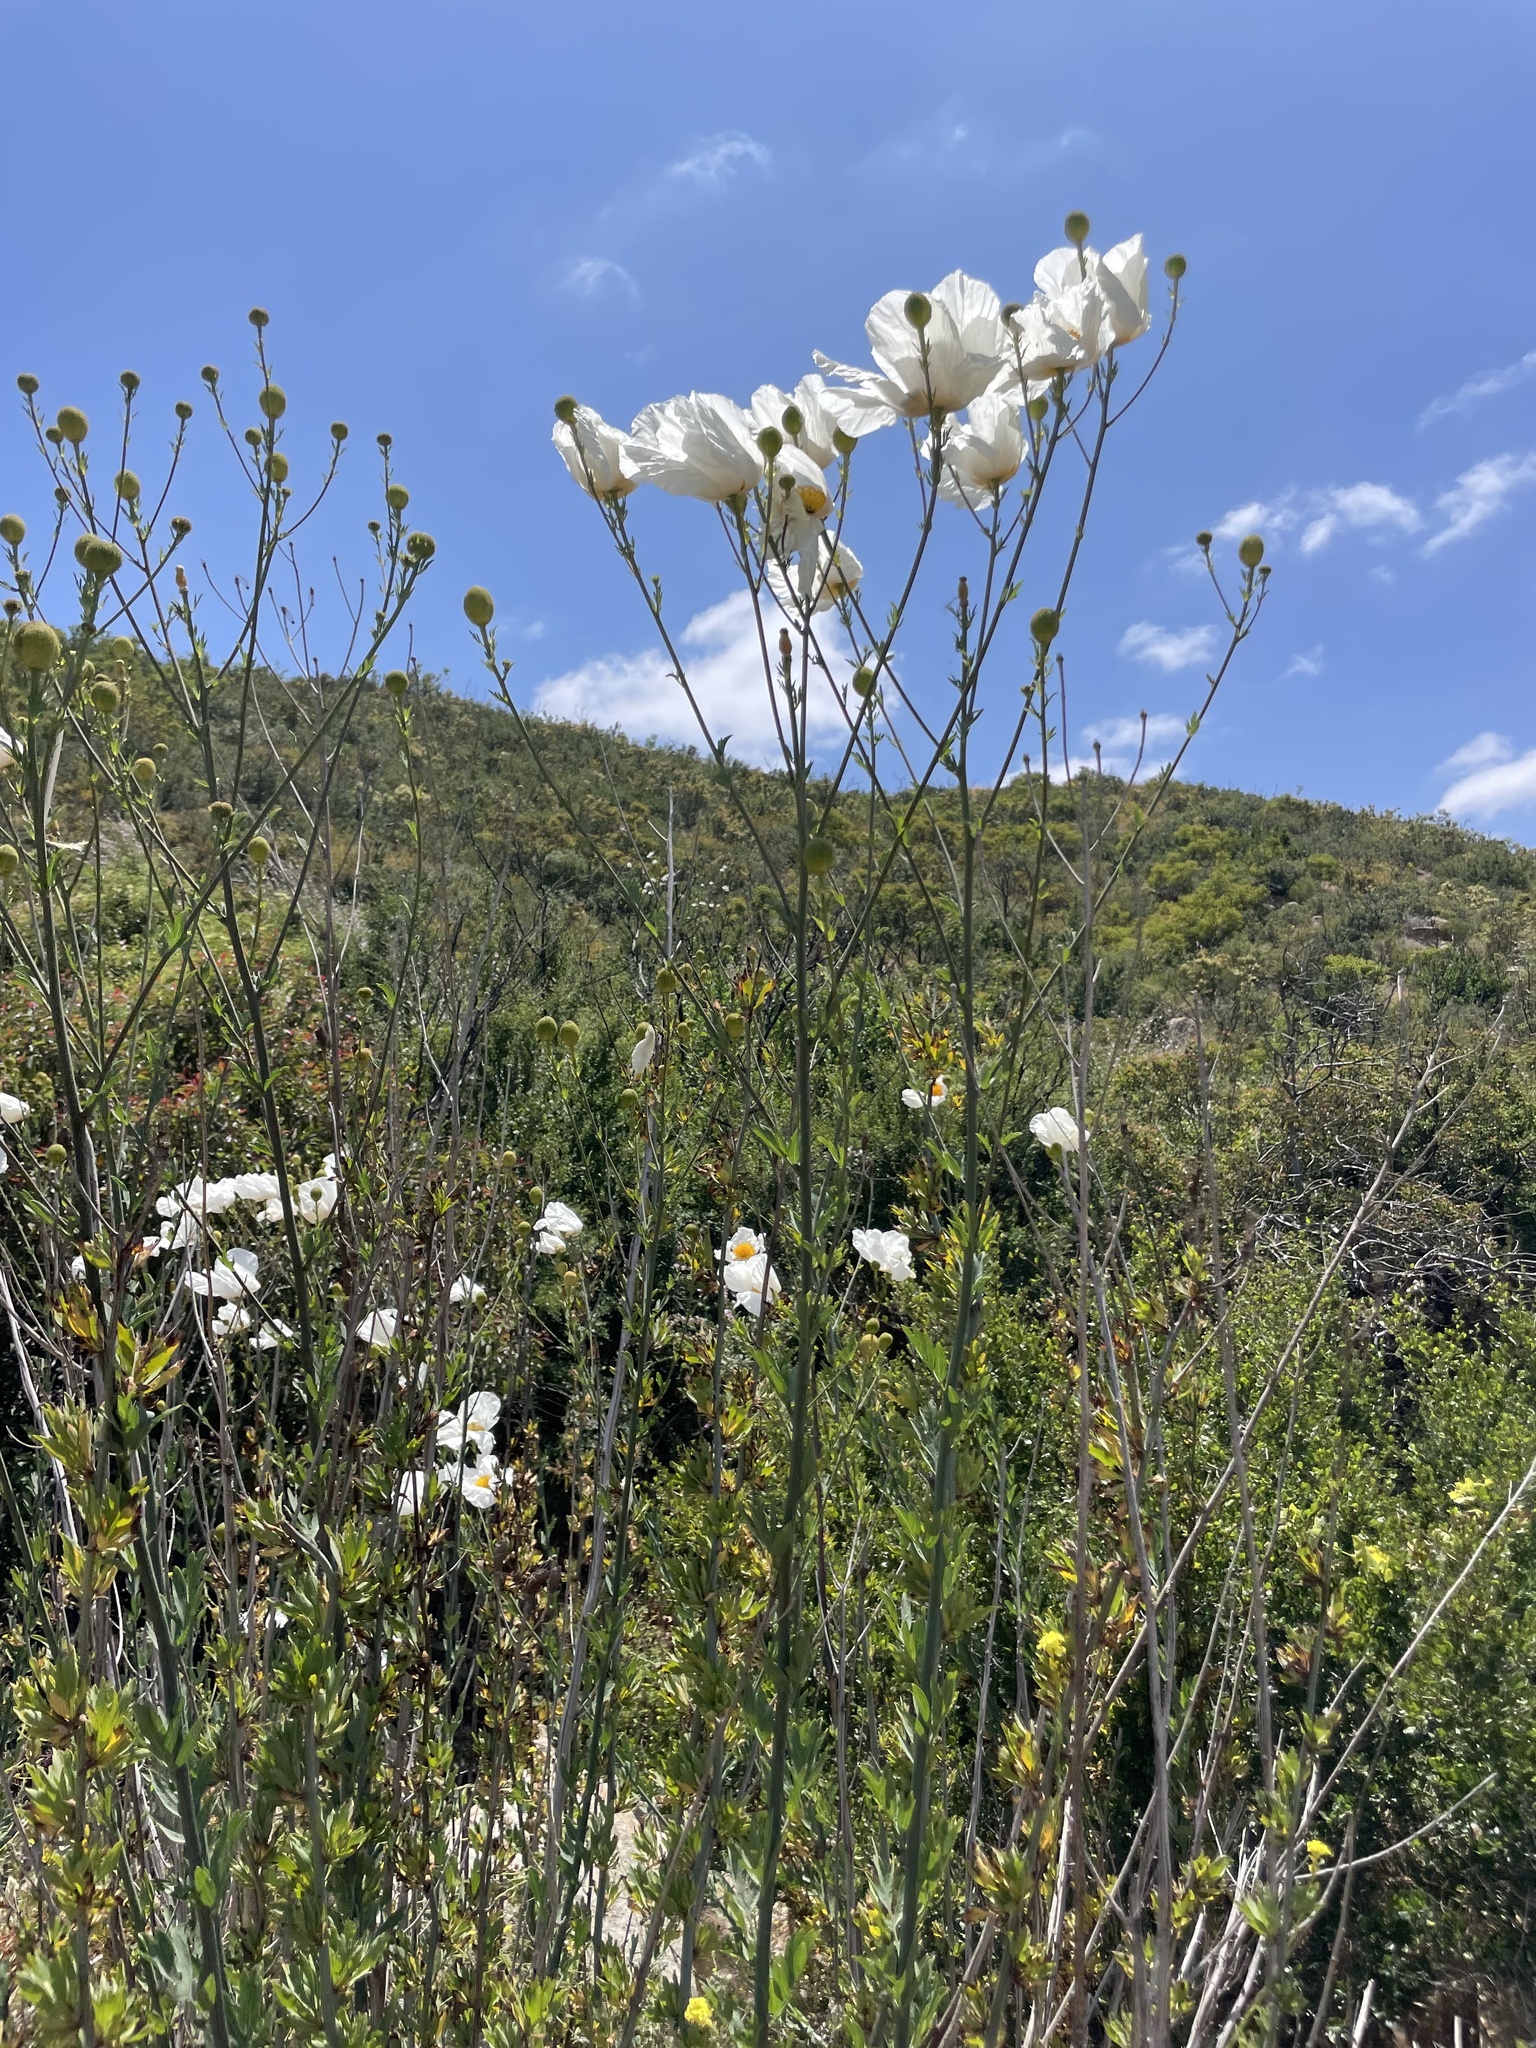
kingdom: Plantae
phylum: Tracheophyta
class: Magnoliopsida
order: Ranunculales
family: Papaveraceae
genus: Romneya
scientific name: Romneya trichocalyx
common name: Hairy matilija-poppy
